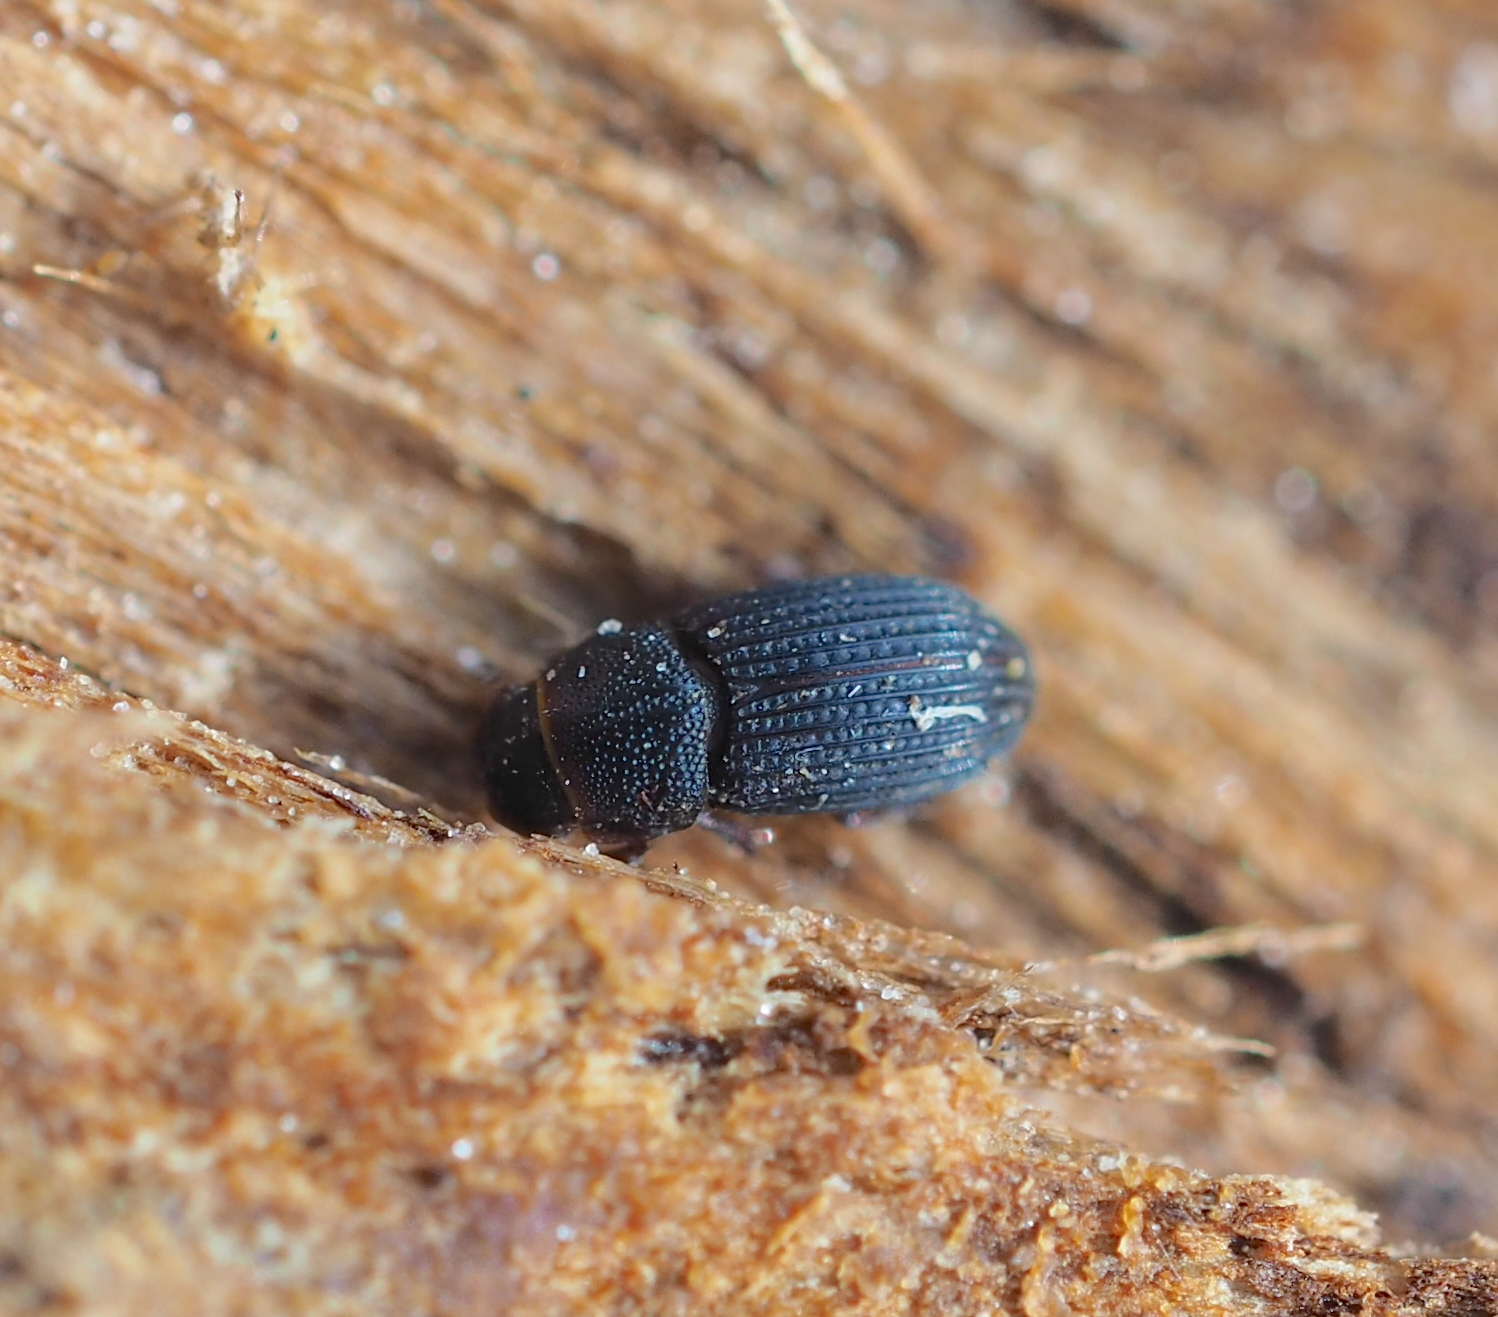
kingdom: Animalia
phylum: Arthropoda
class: Insecta
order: Coleoptera
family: Scarabaeidae
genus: Oxyomus
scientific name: Oxyomus sylvestris
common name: Forest small dung beetle
